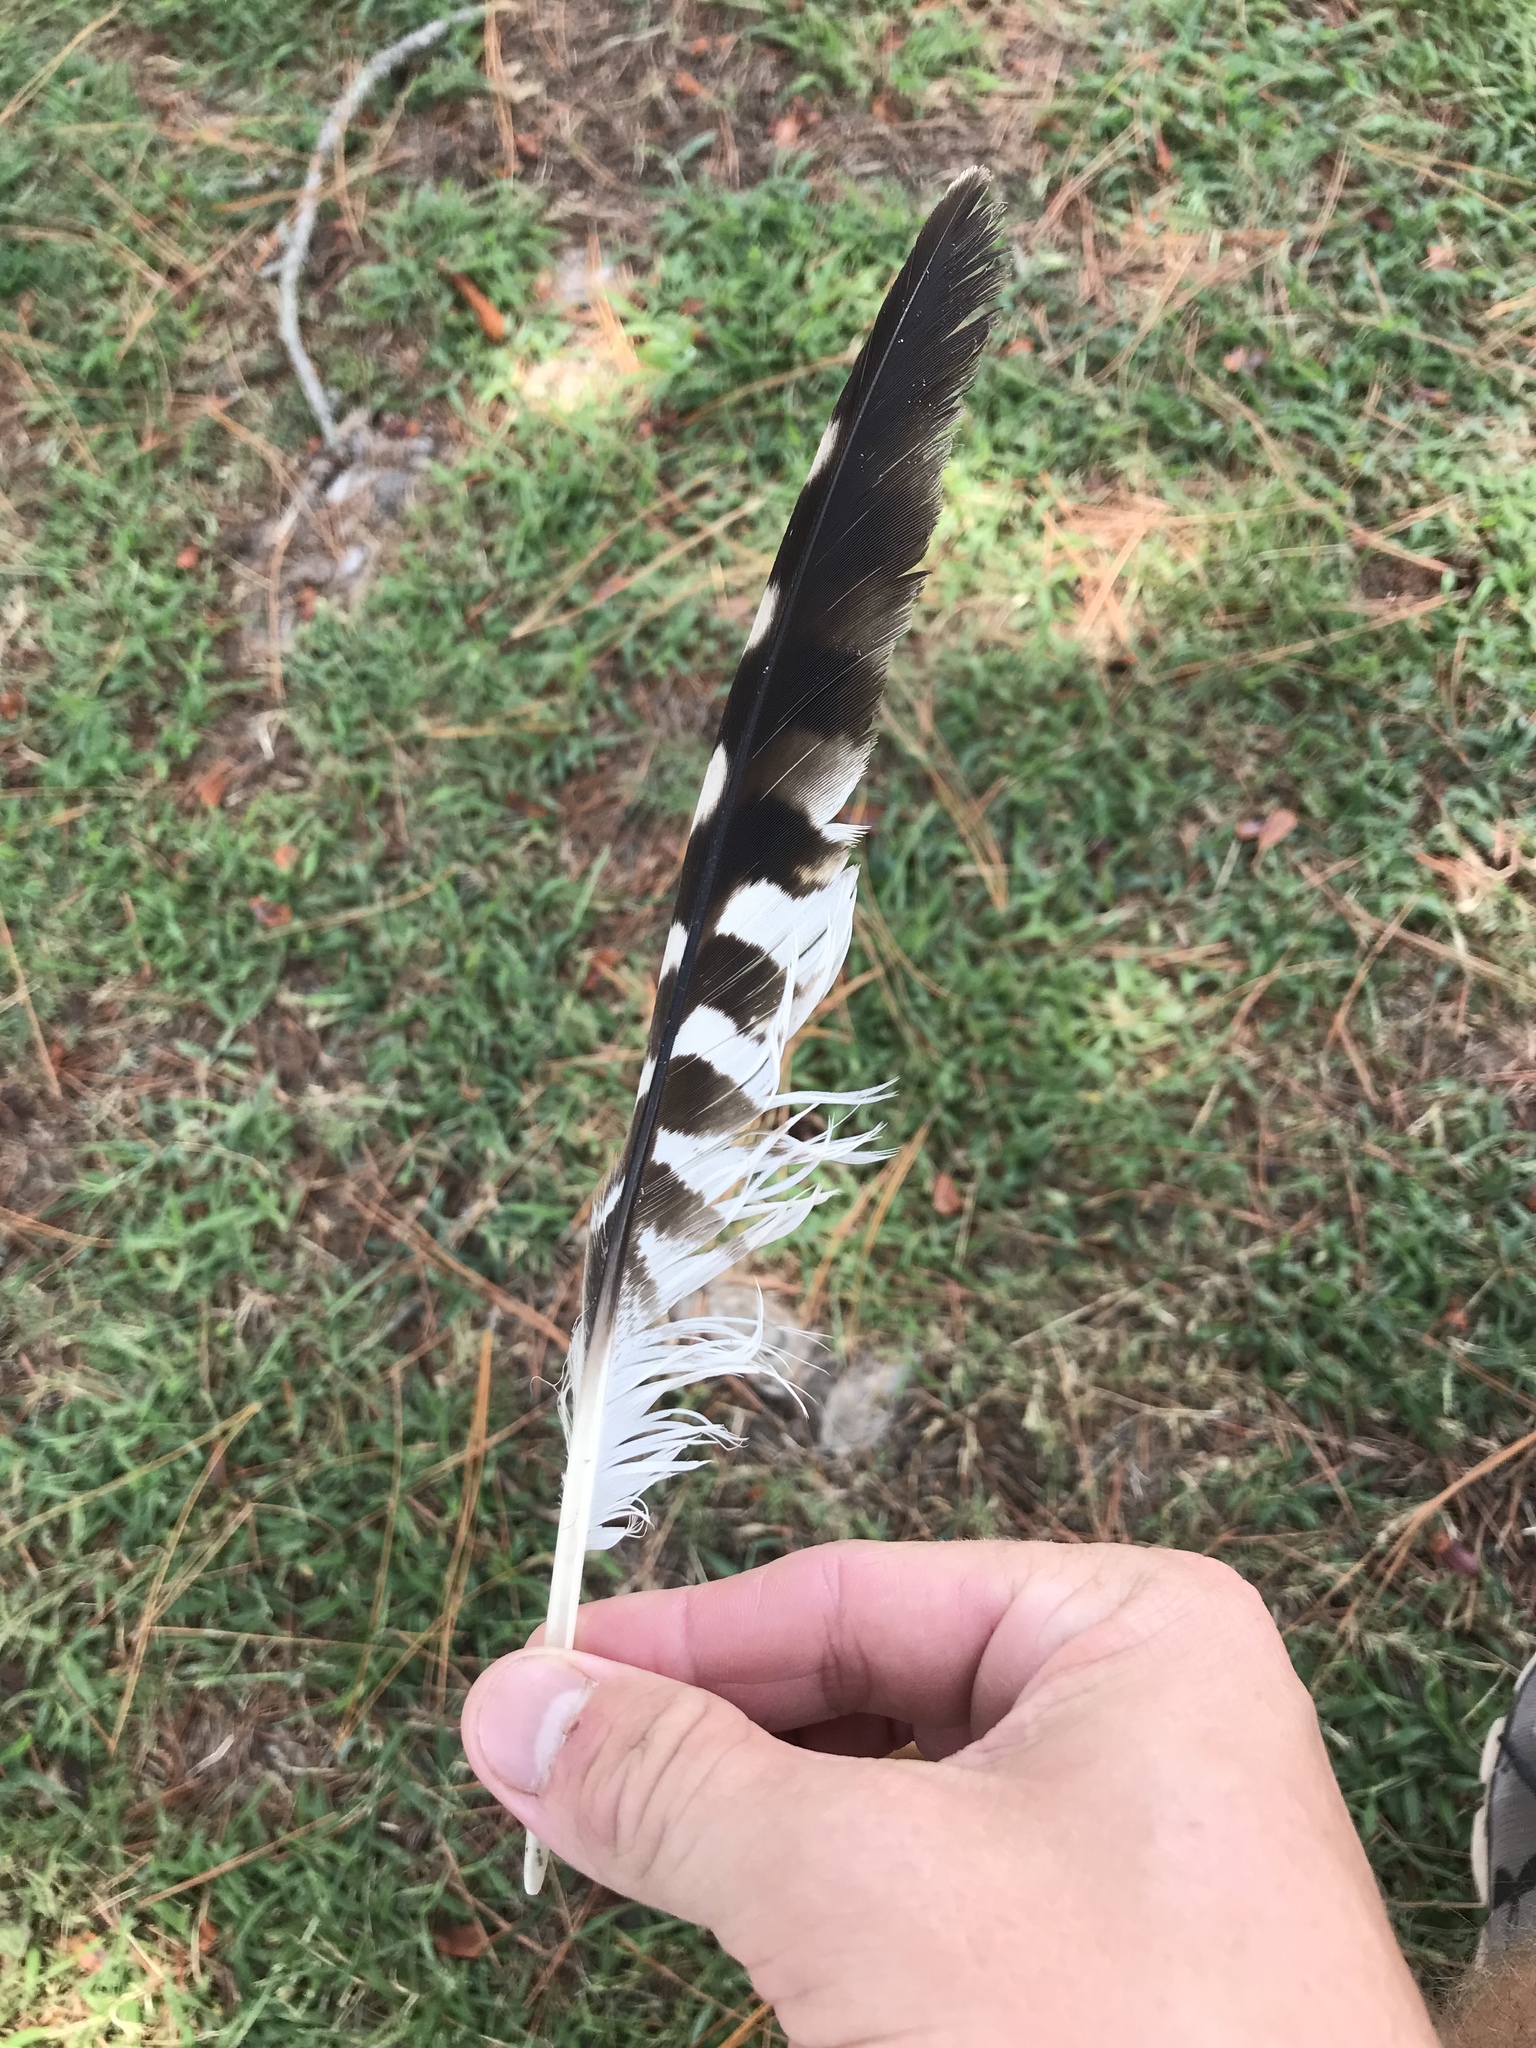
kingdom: Animalia
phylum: Chordata
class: Aves
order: Accipitriformes
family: Accipitridae
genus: Buteo
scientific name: Buteo lineatus
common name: Red-shouldered hawk
